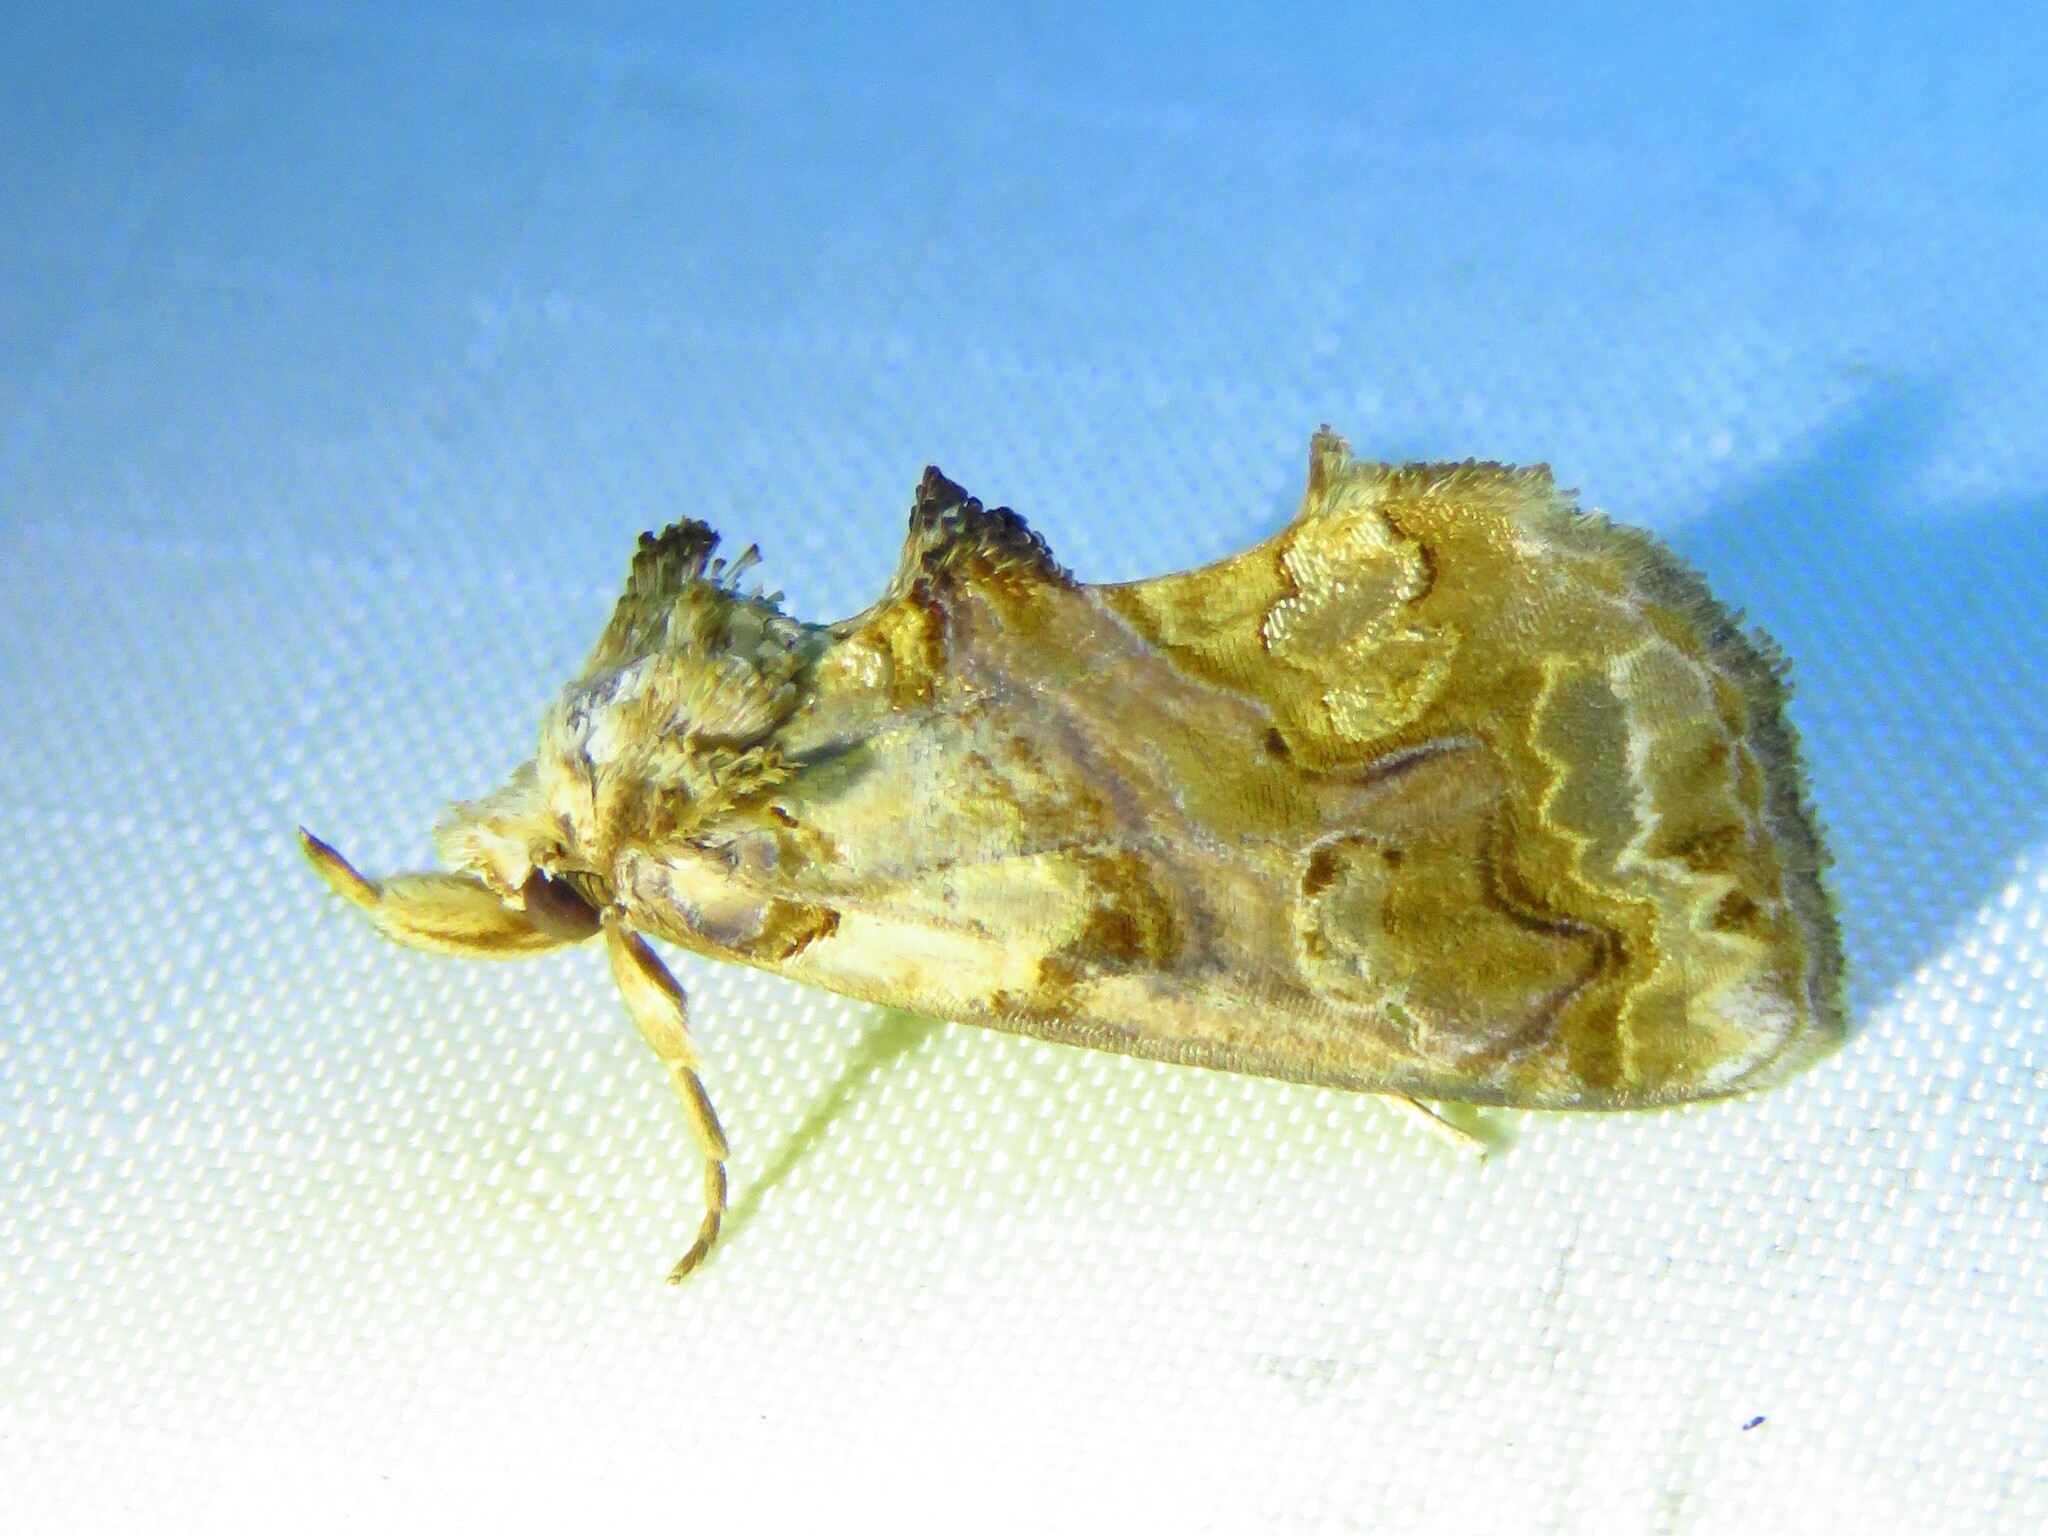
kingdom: Animalia
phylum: Arthropoda
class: Insecta
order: Lepidoptera
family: Erebidae
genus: Plusiodonta
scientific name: Plusiodonta compressipalpis
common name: Moonseed moth
